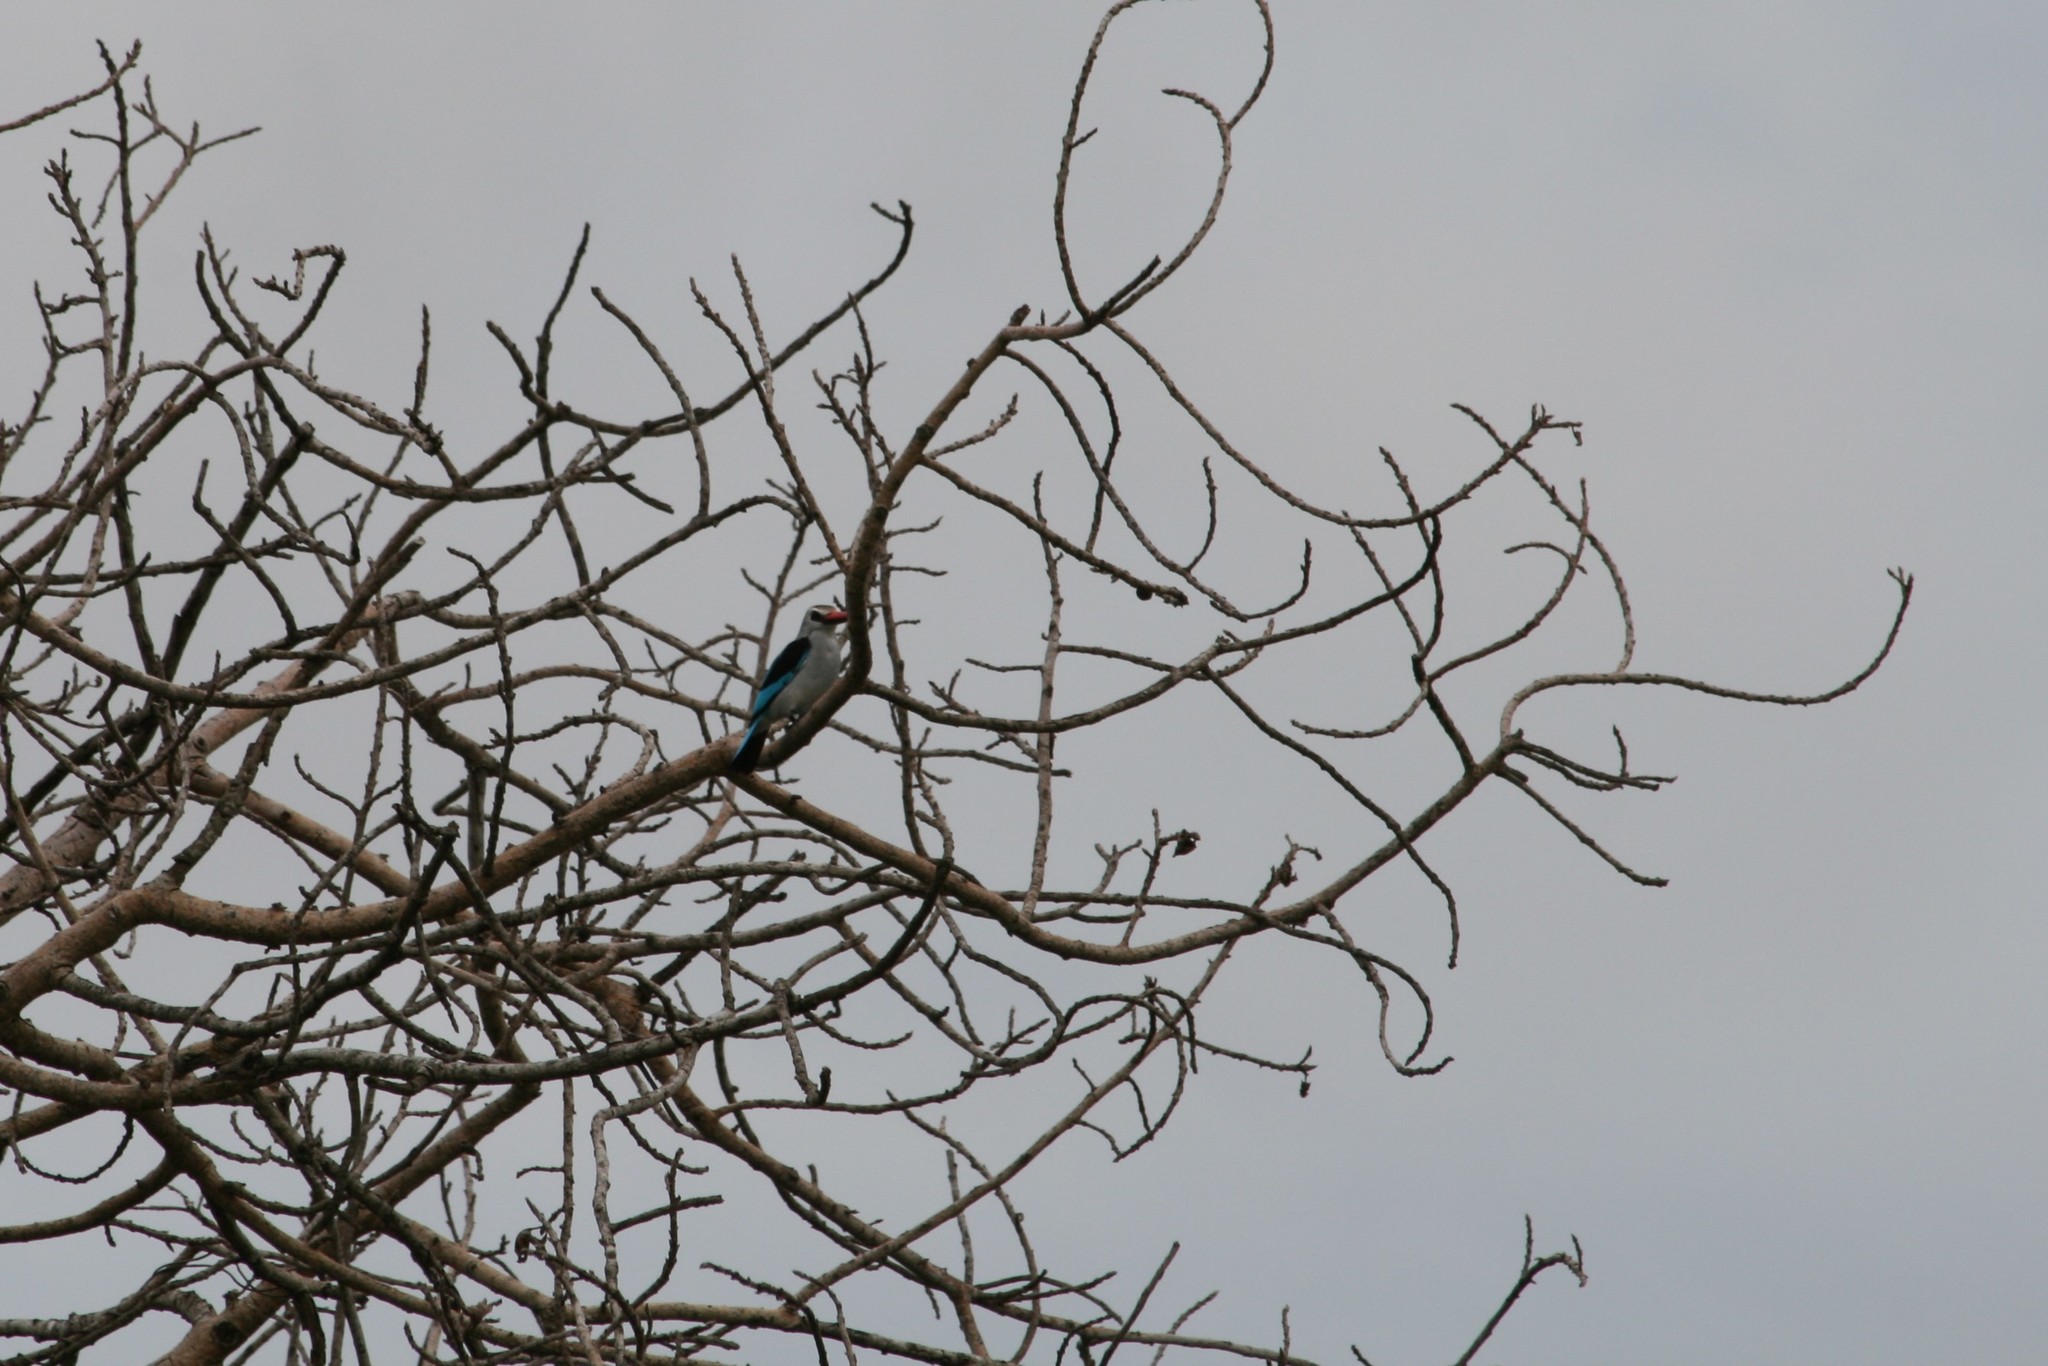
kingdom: Animalia
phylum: Chordata
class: Aves
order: Coraciiformes
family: Alcedinidae
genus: Halcyon
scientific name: Halcyon senegalensis
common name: Woodland kingfisher
